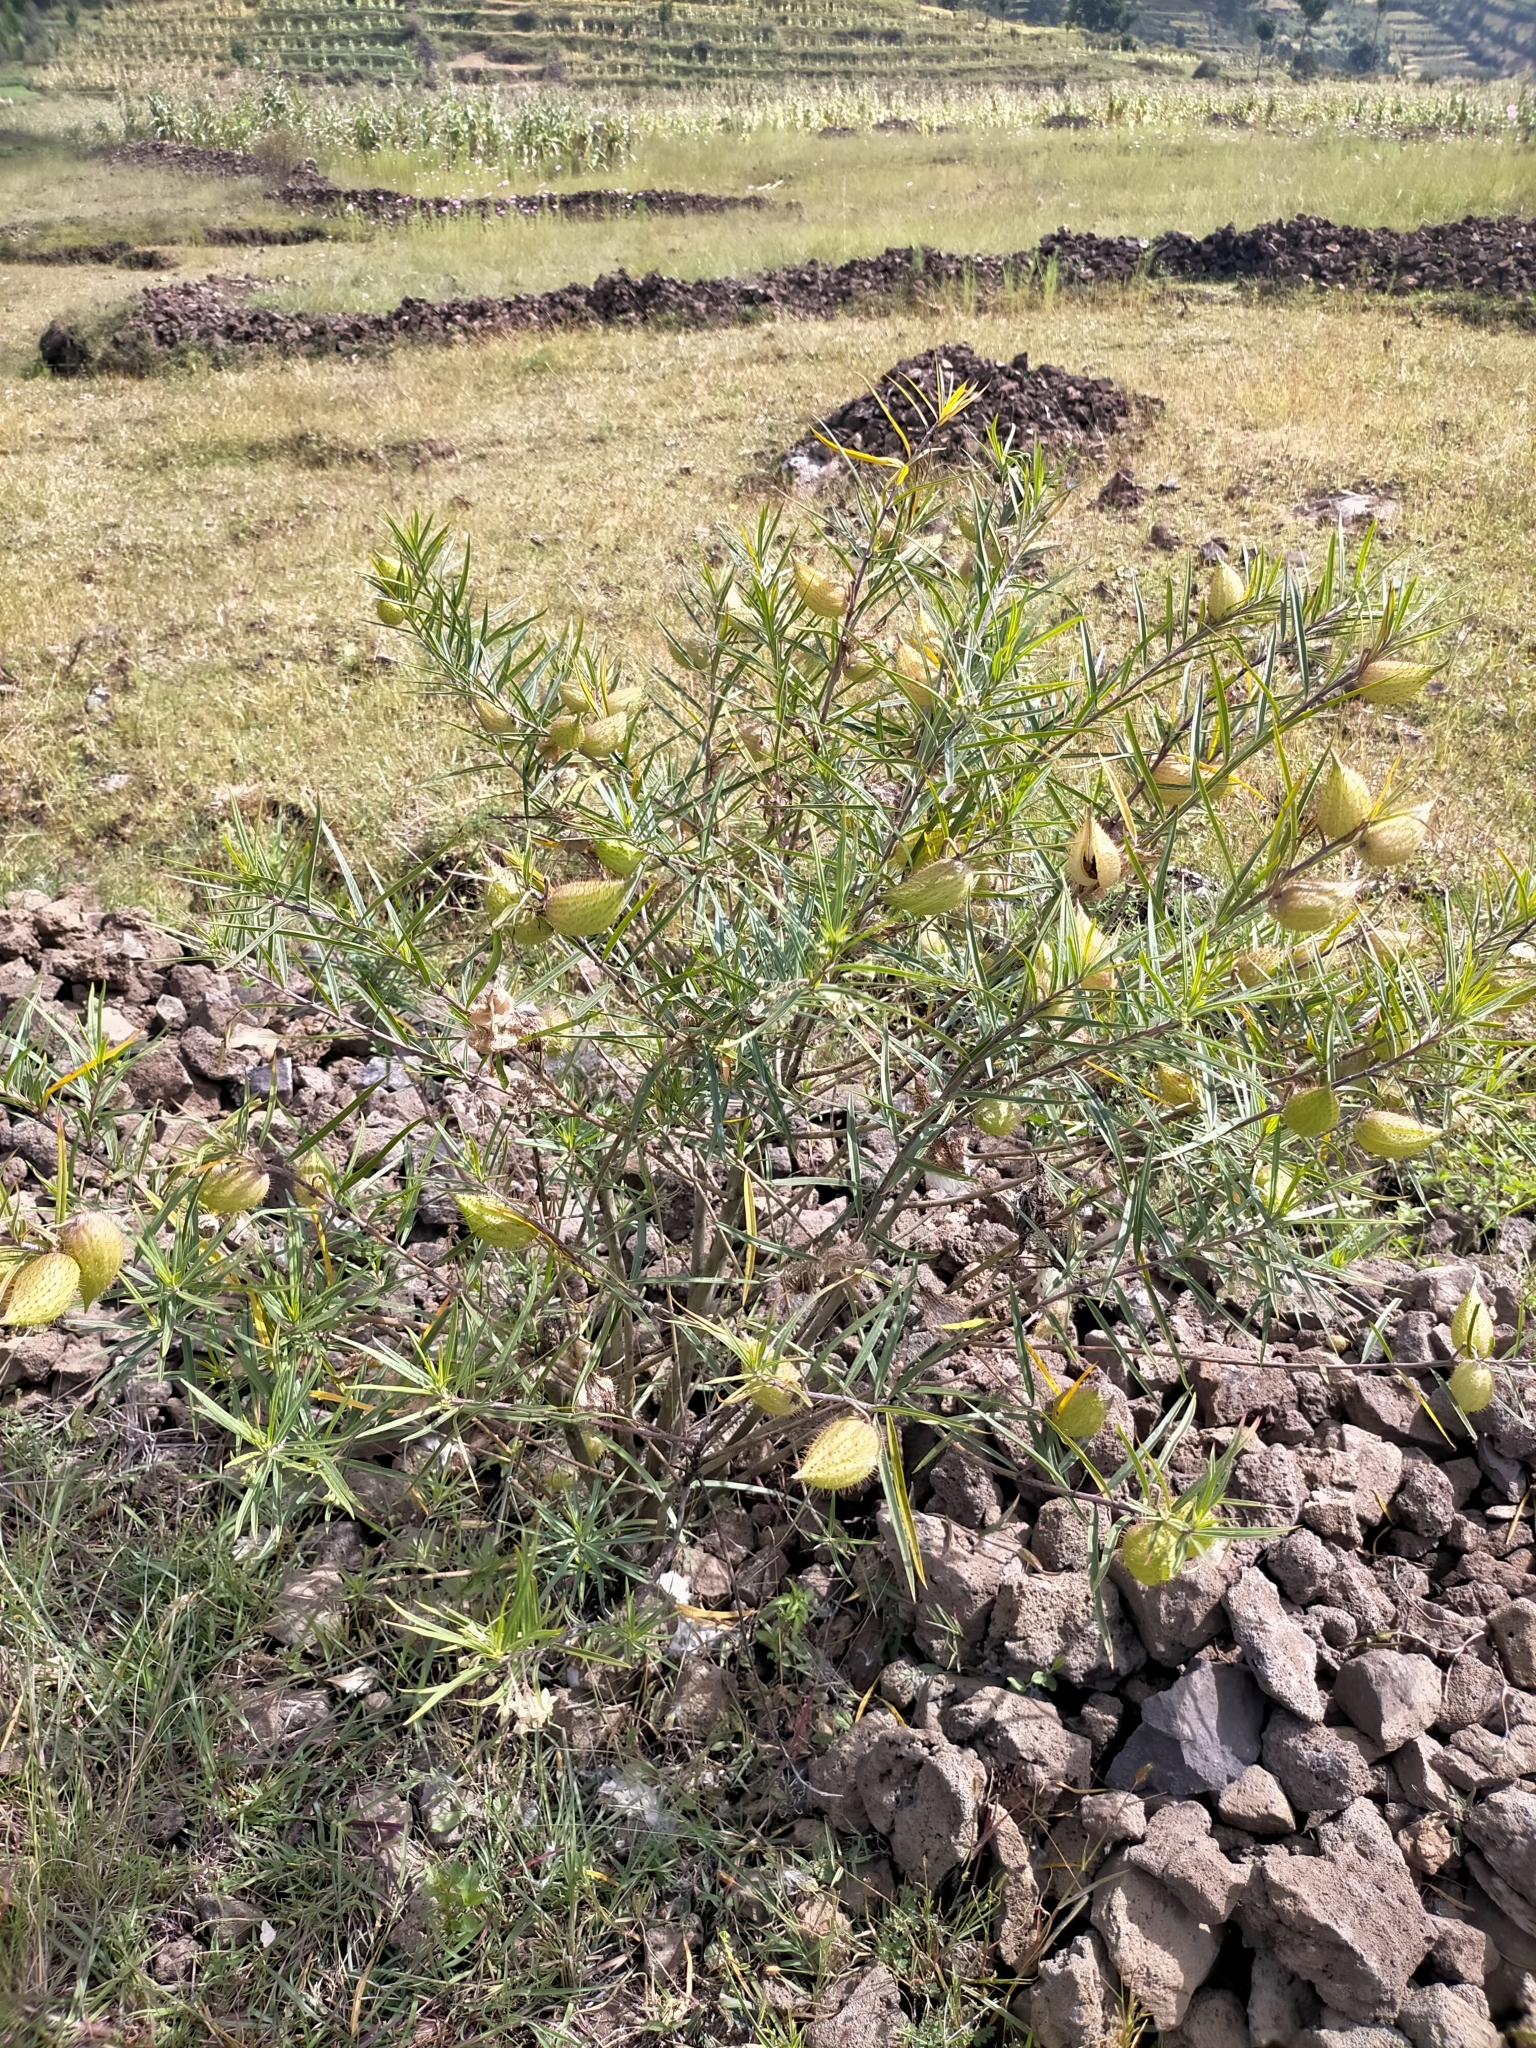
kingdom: Plantae
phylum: Tracheophyta
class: Magnoliopsida
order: Gentianales
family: Apocynaceae
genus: Gomphocarpus
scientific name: Gomphocarpus fruticosus
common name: Milkweed
